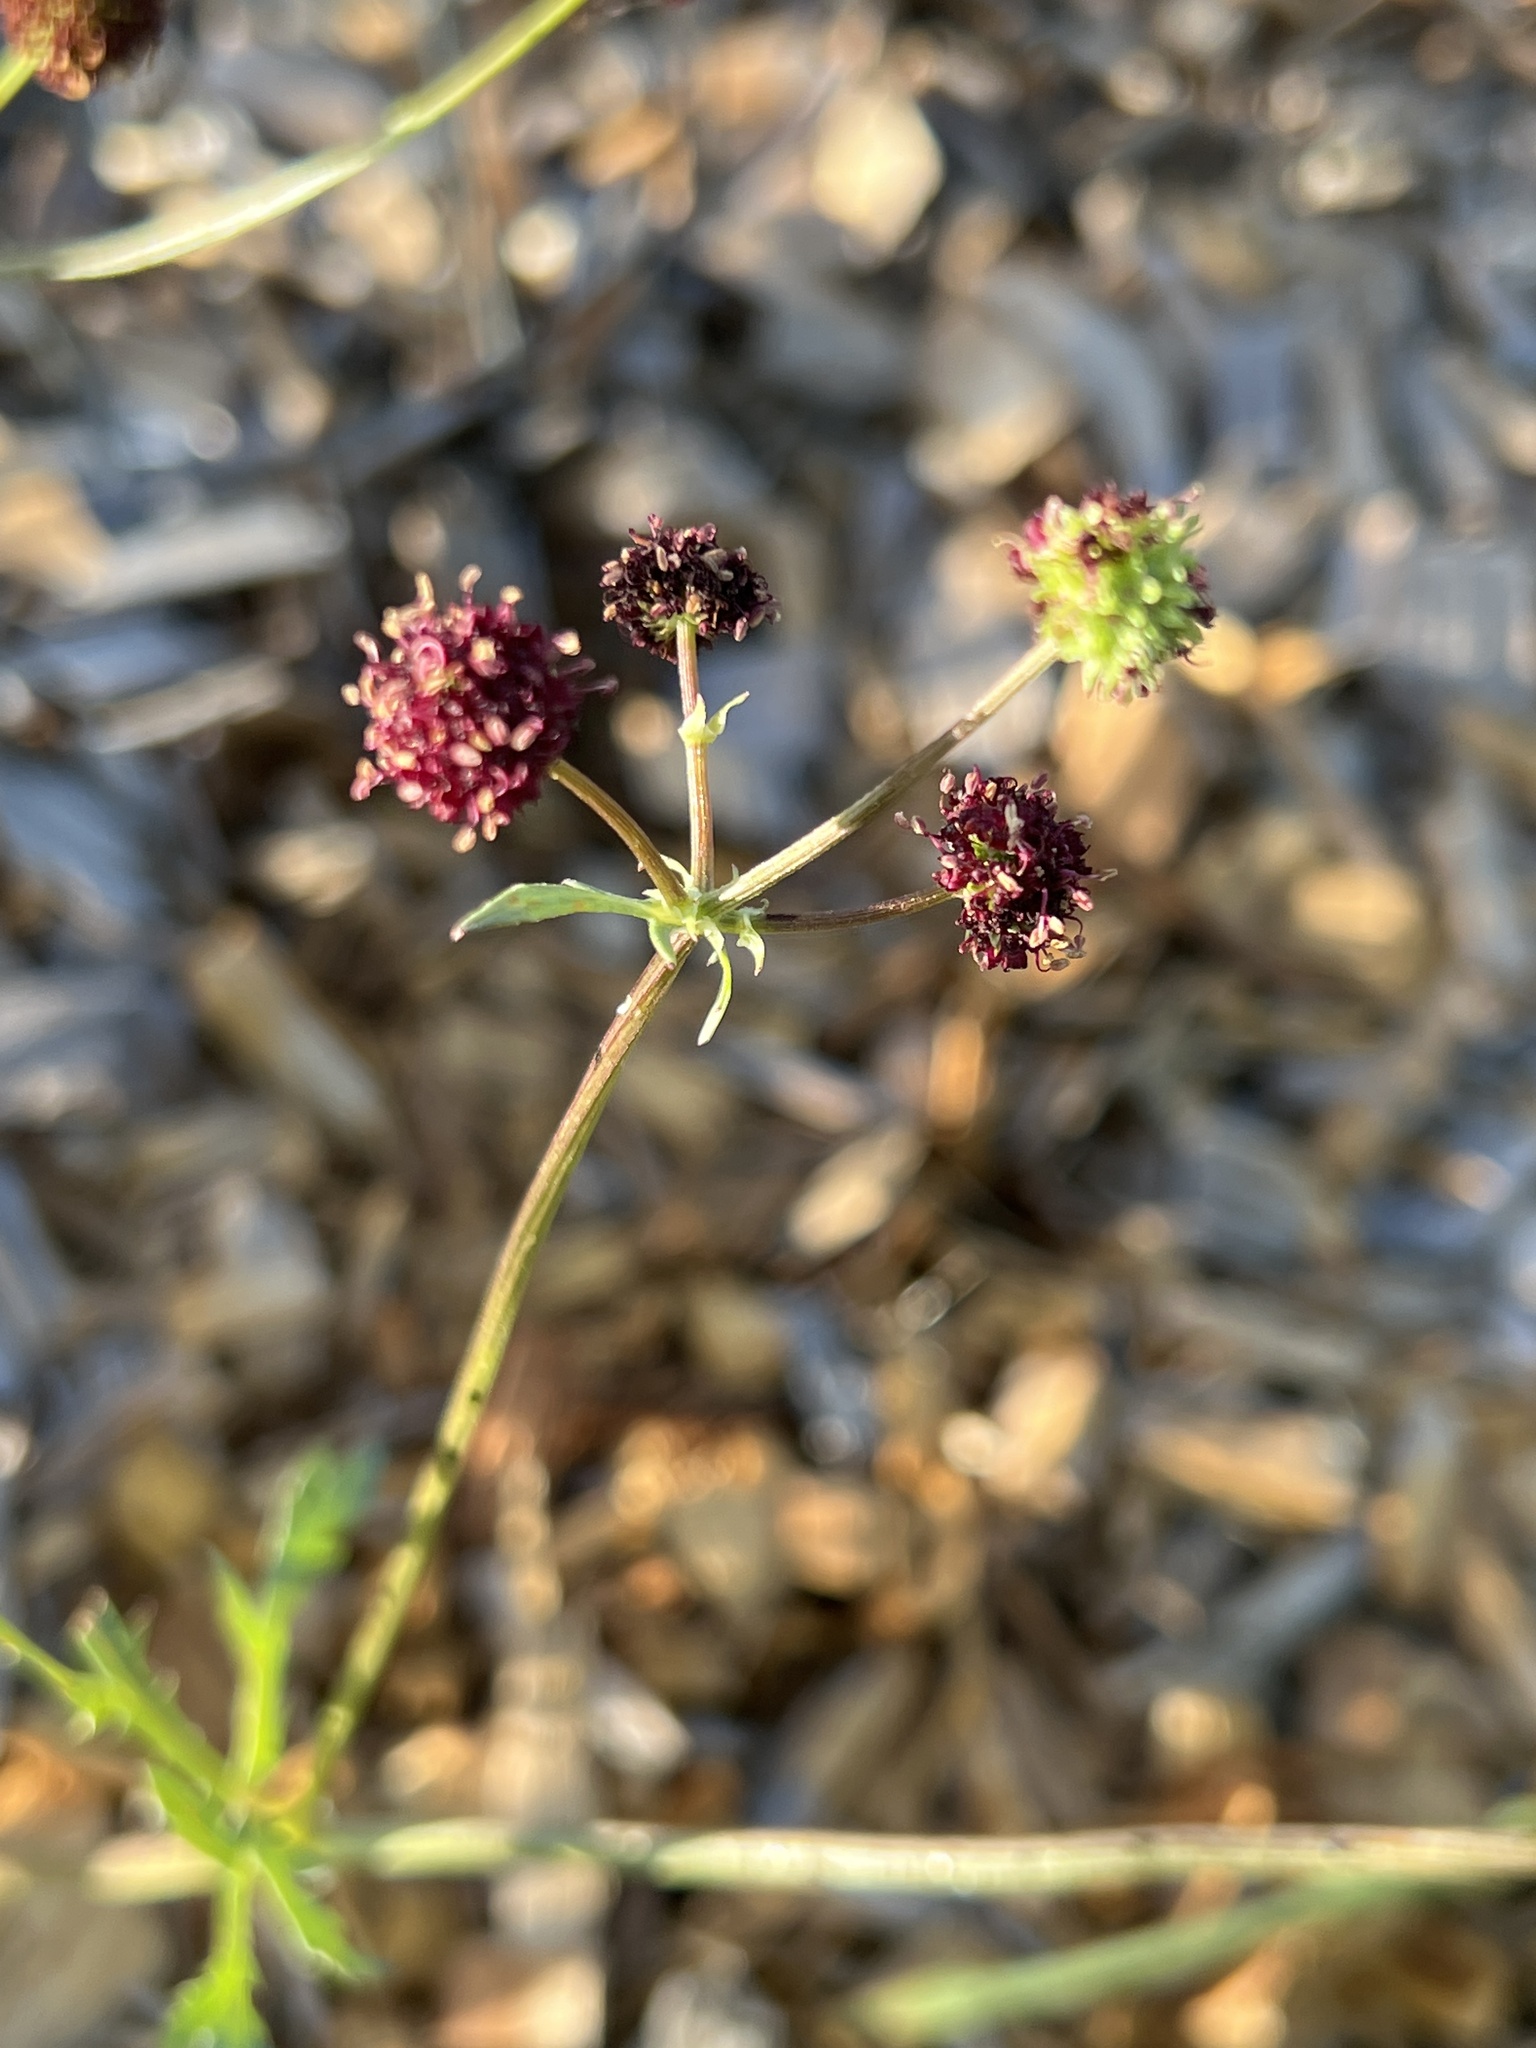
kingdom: Plantae
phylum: Tracheophyta
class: Magnoliopsida
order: Apiales
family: Apiaceae
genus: Sanicula
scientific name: Sanicula bipinnatifida
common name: Shoe-buttons
